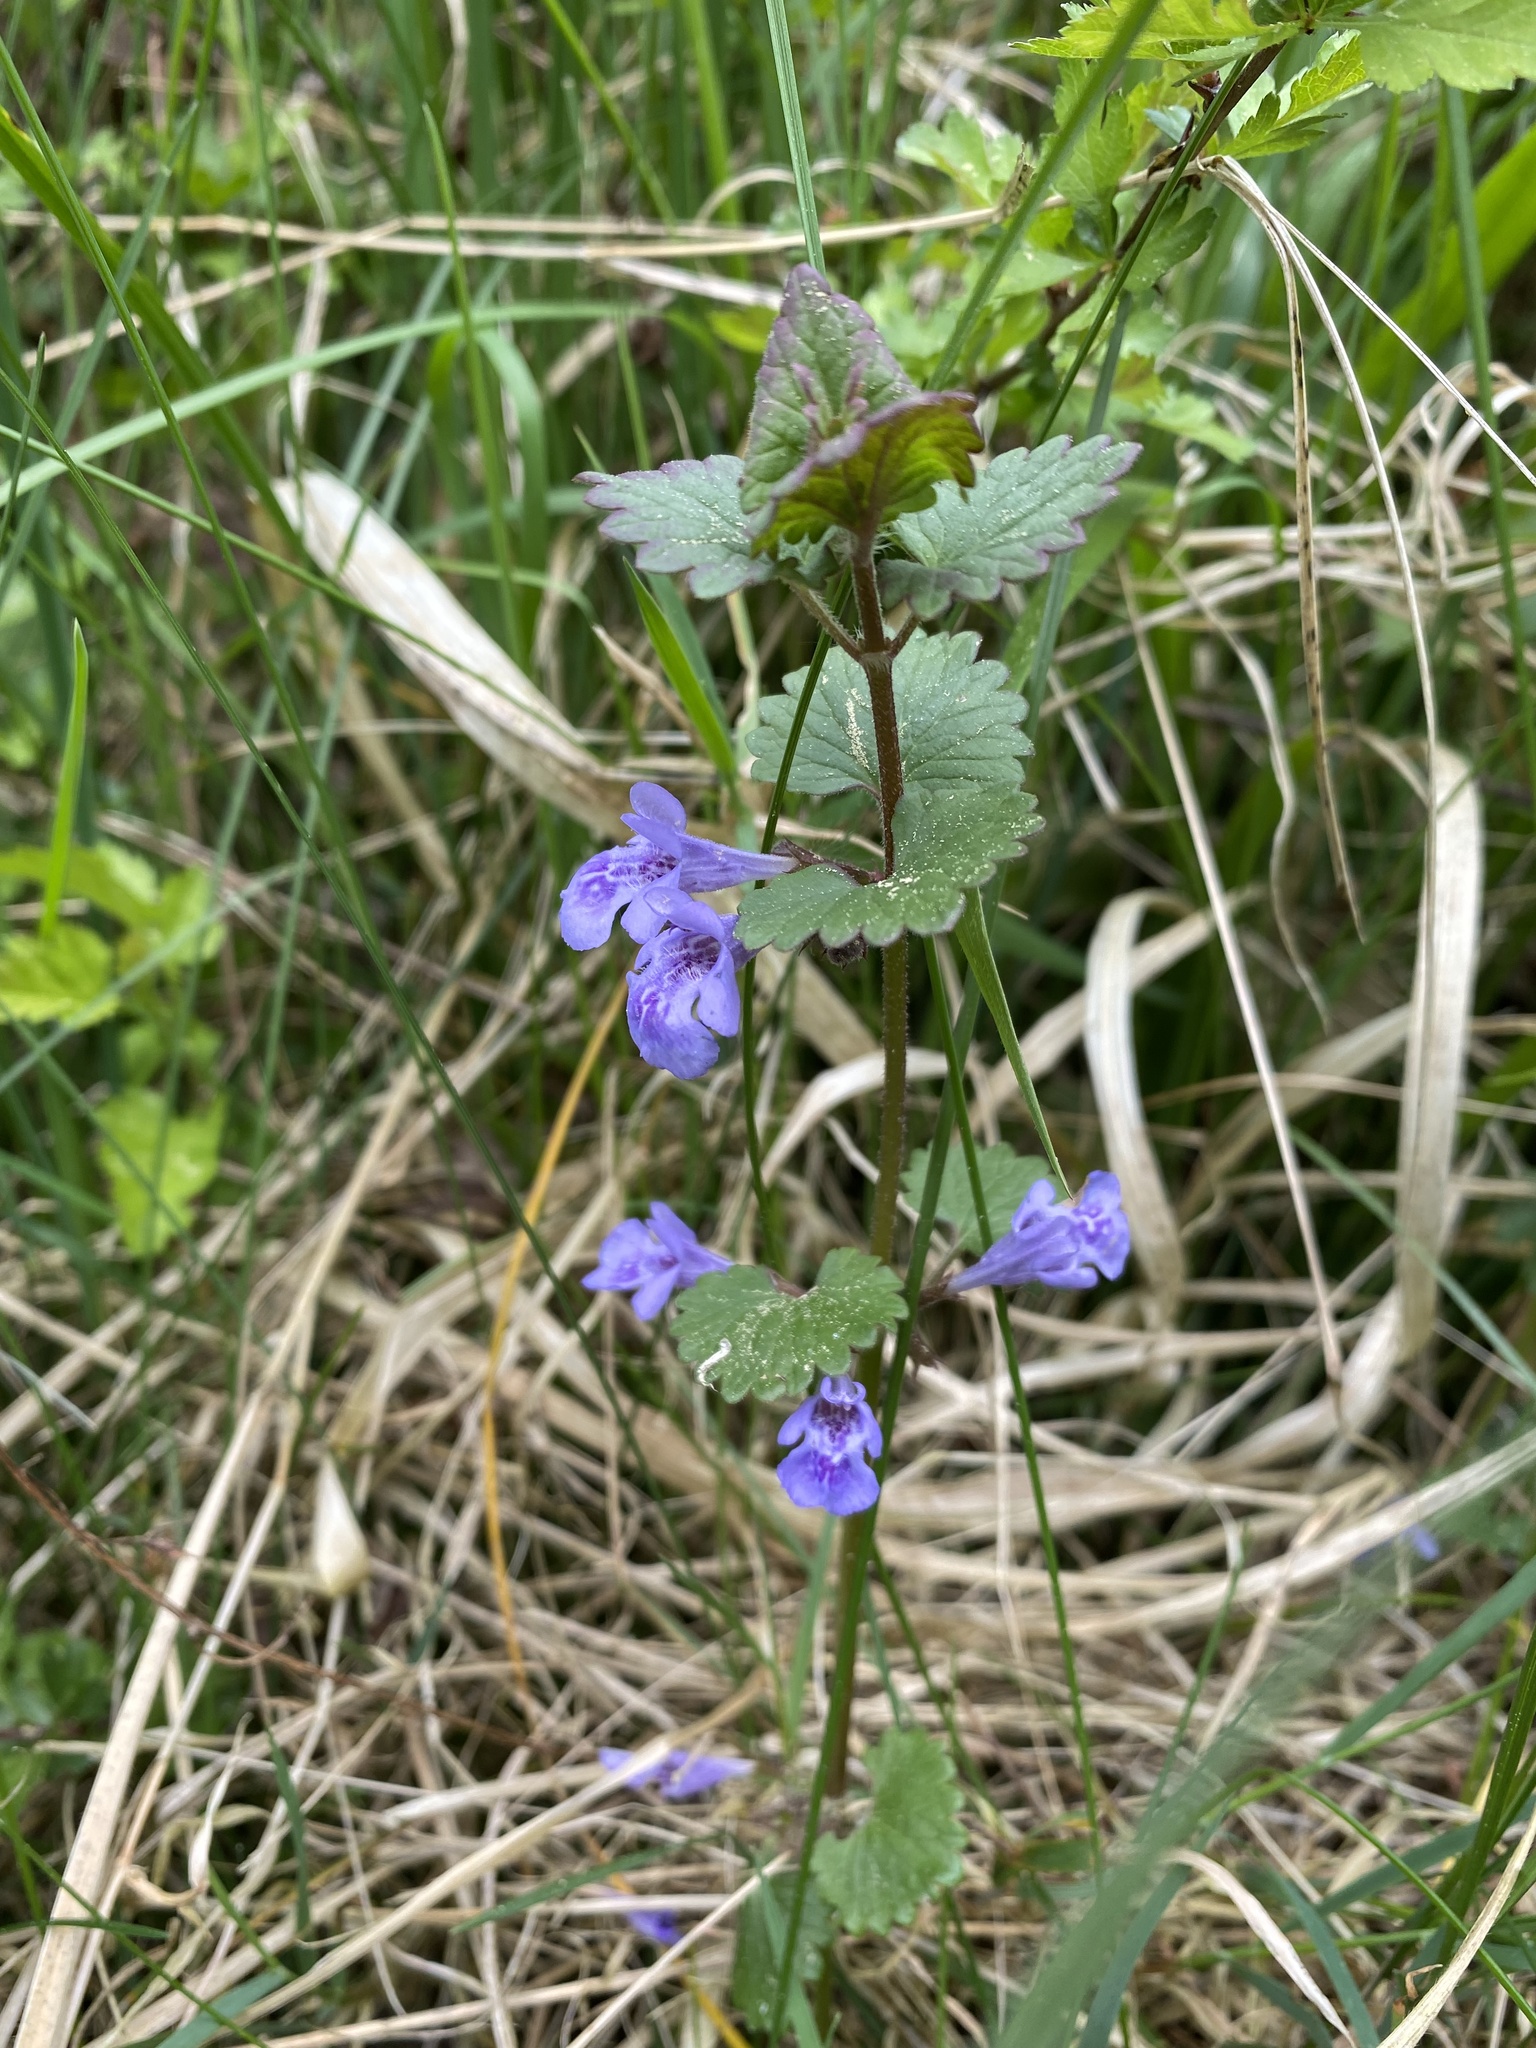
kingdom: Plantae
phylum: Tracheophyta
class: Magnoliopsida
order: Lamiales
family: Lamiaceae
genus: Glechoma
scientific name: Glechoma hederacea
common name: Ground ivy
